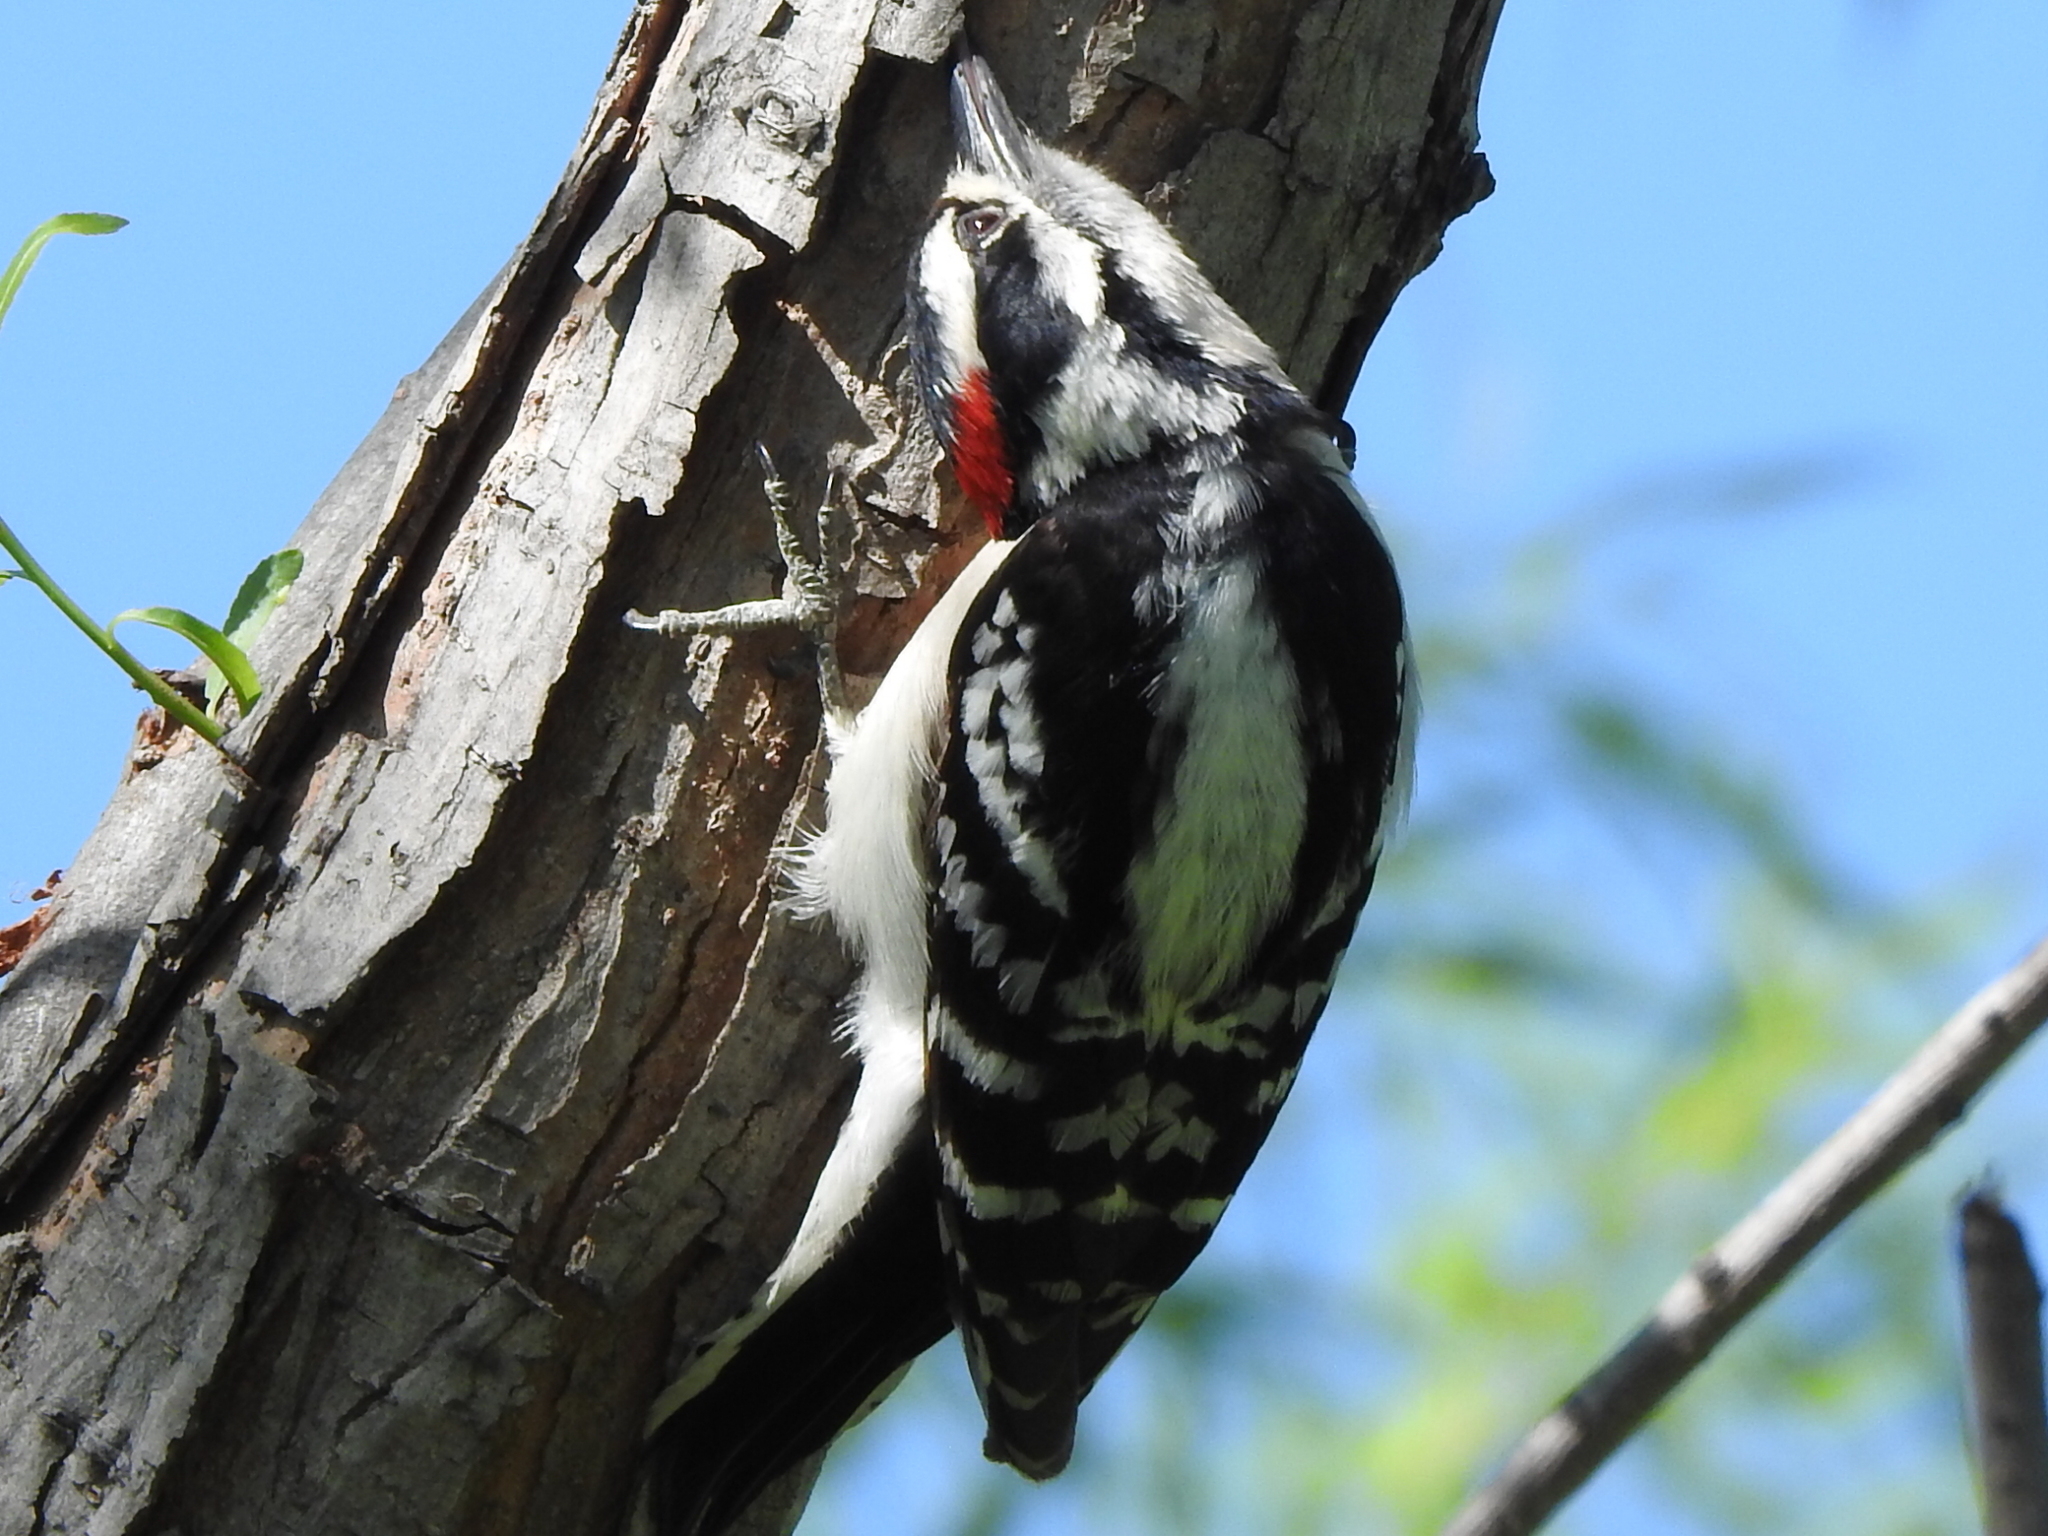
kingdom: Animalia
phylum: Chordata
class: Aves
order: Piciformes
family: Picidae
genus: Dryobates
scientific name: Dryobates pubescens
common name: Downy woodpecker
